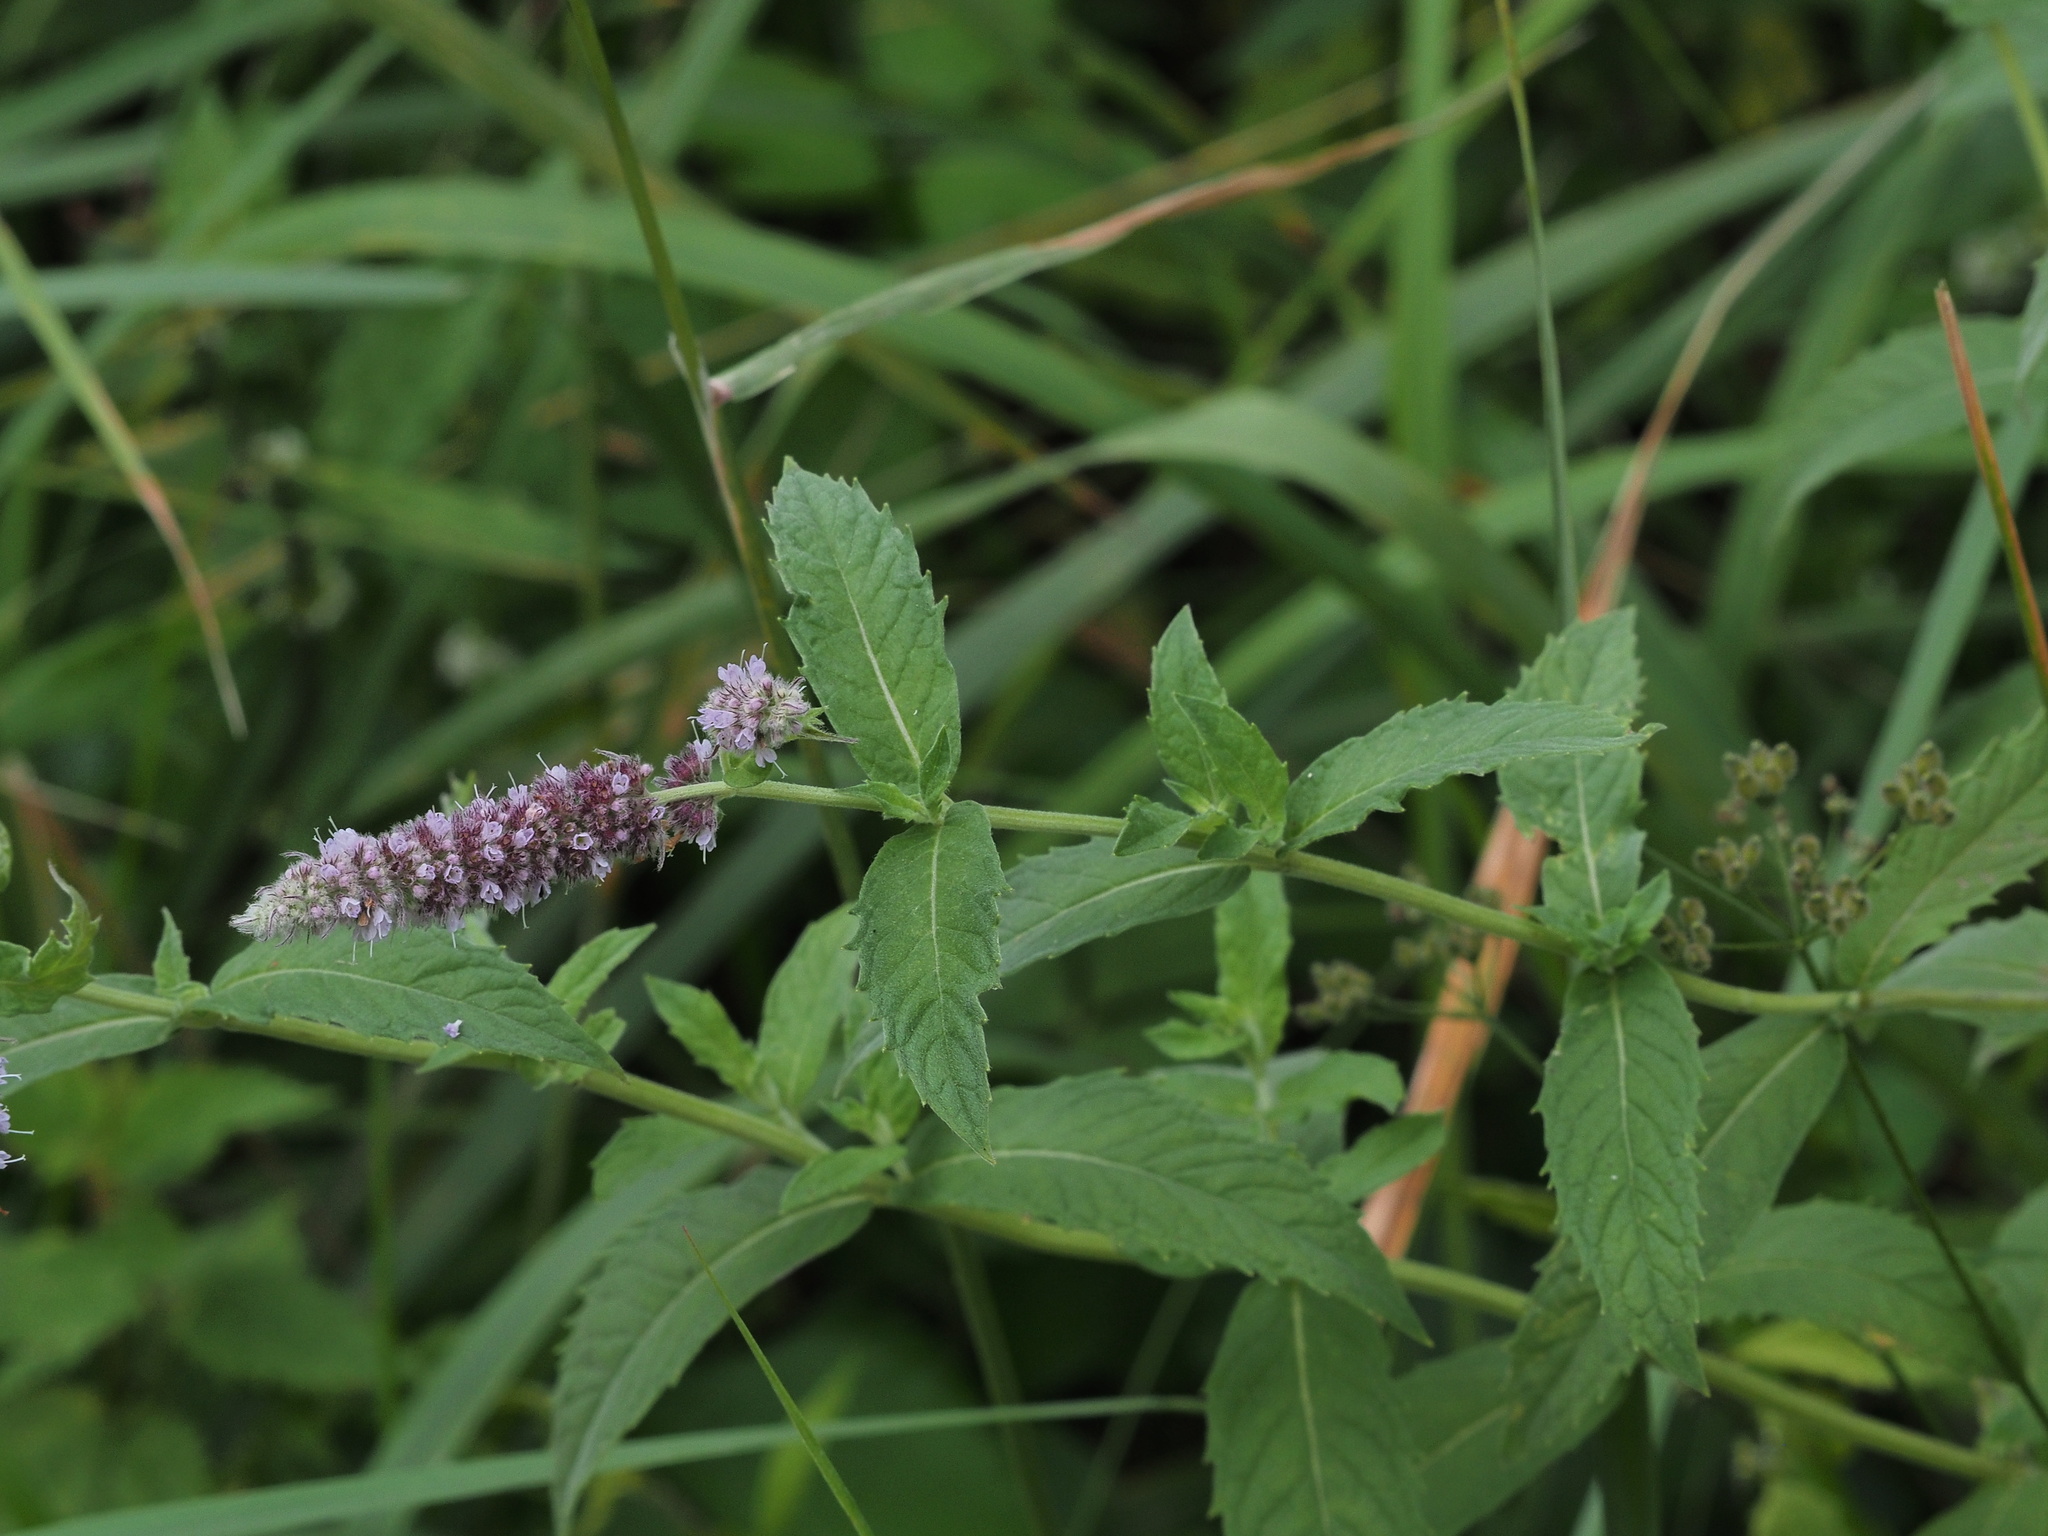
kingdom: Plantae
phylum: Tracheophyta
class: Magnoliopsida
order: Lamiales
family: Lamiaceae
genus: Mentha
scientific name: Mentha longifolia
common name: Horse mint
